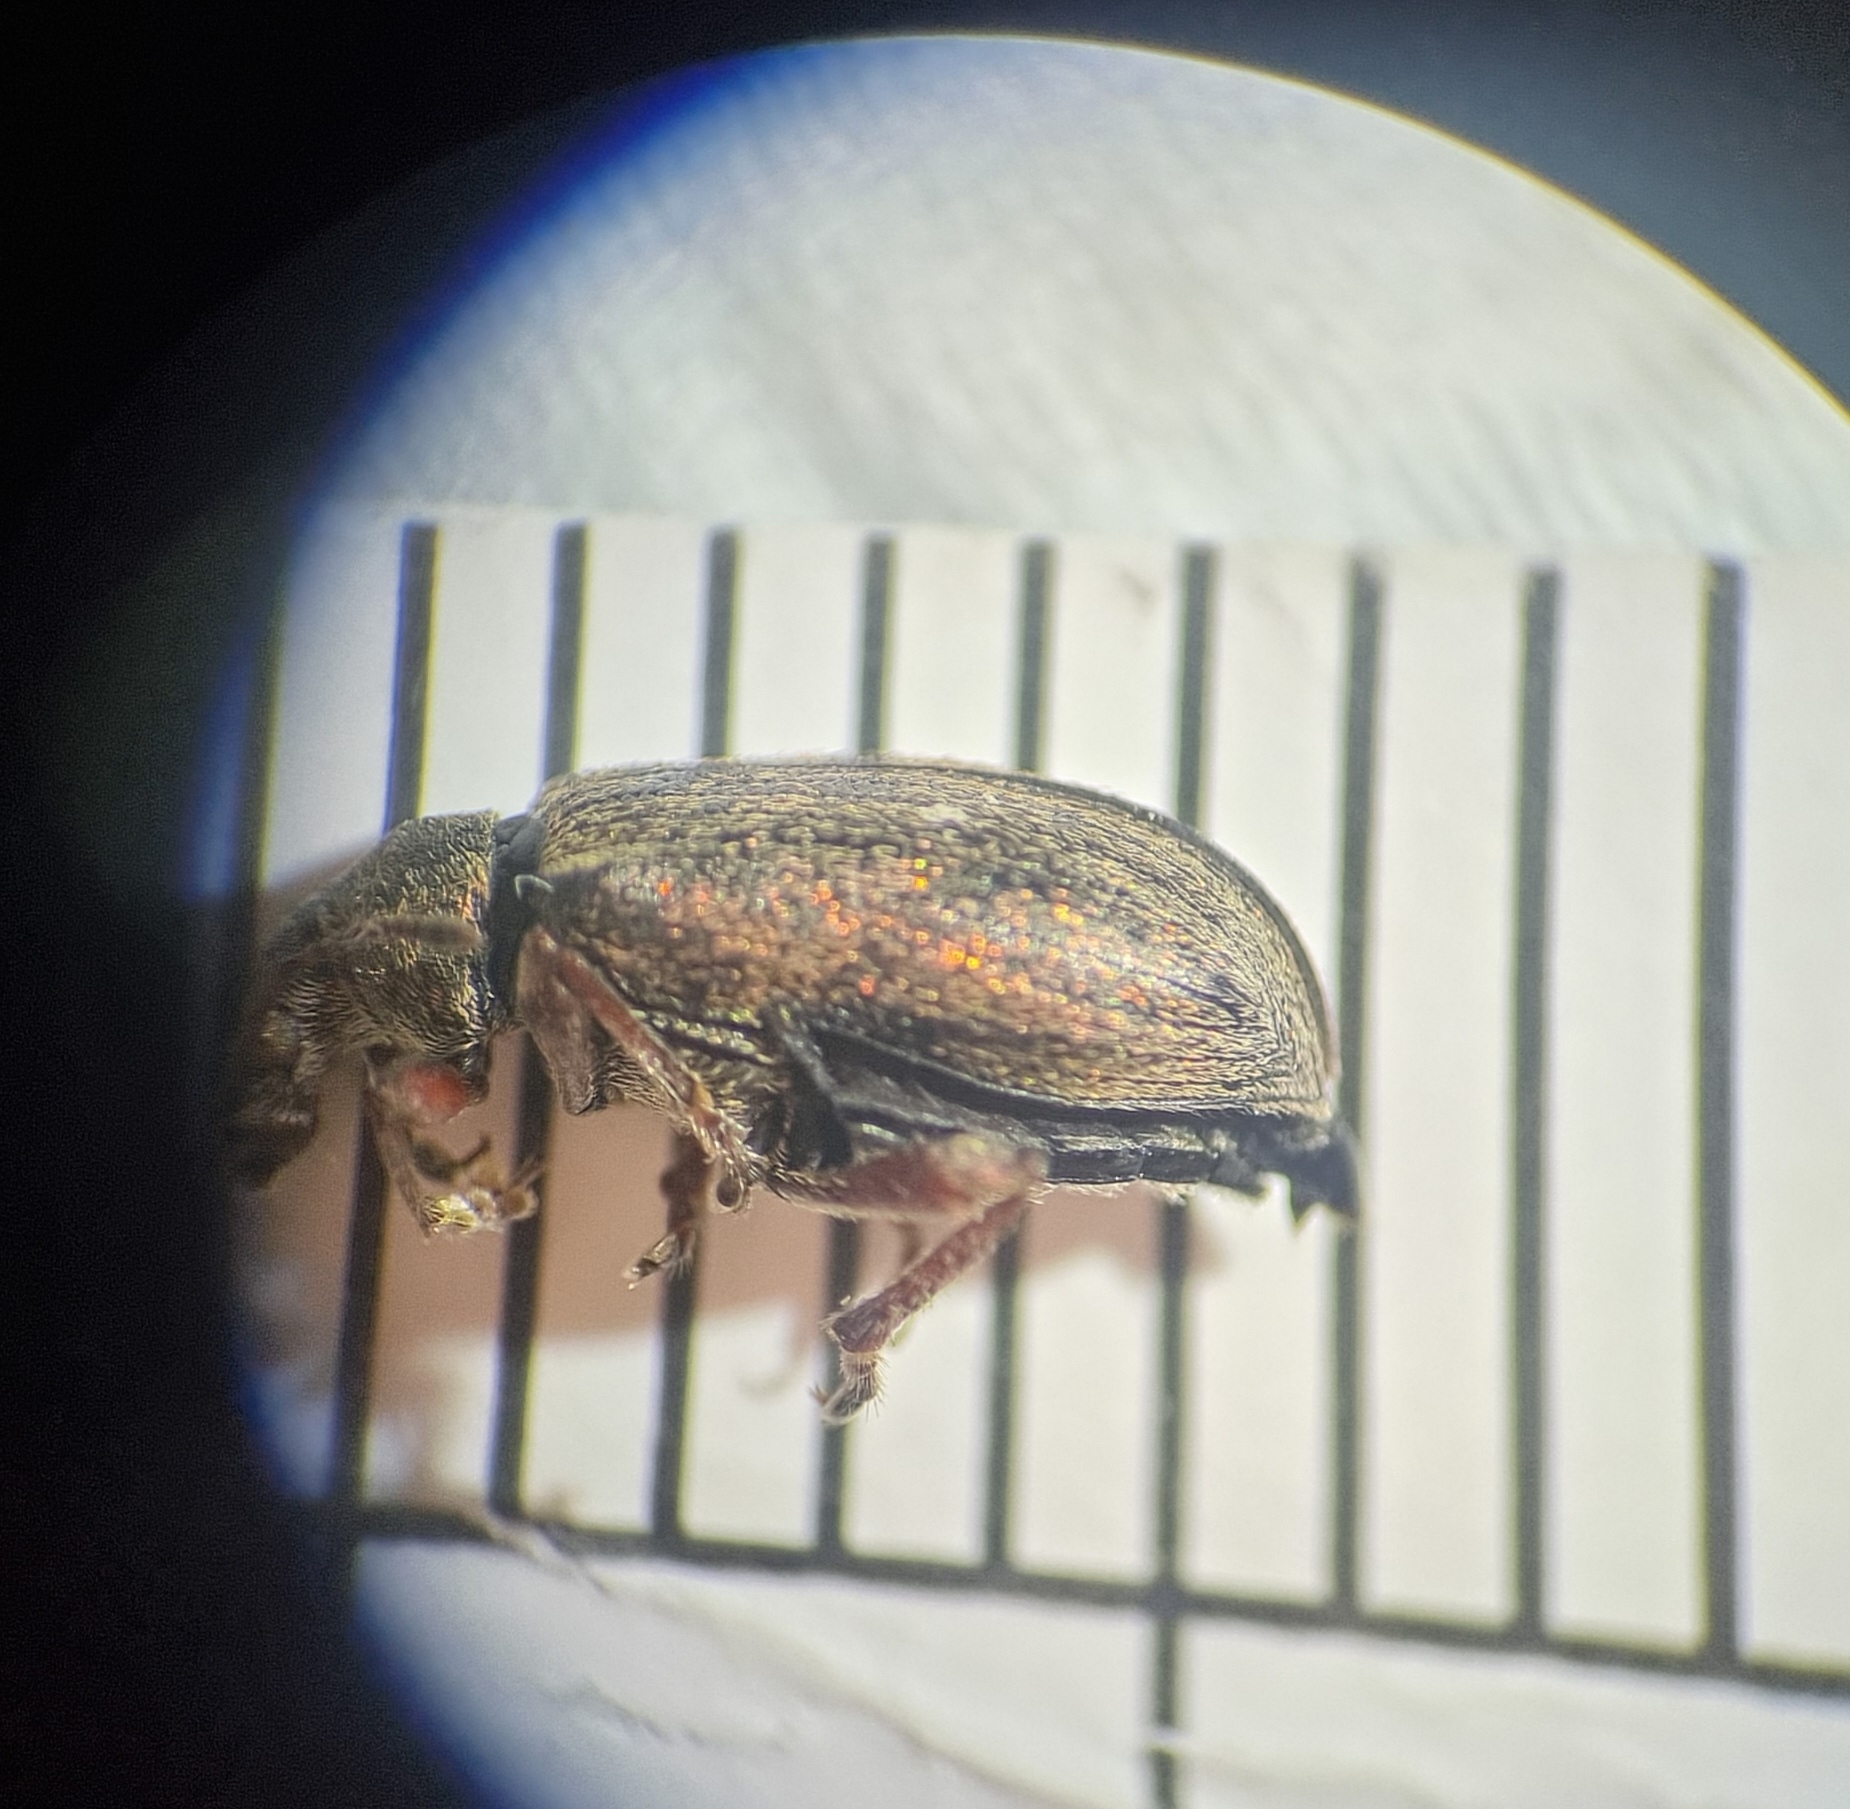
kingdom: Animalia
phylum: Arthropoda
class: Insecta
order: Coleoptera
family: Curculionidae
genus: Phyllobius
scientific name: Phyllobius pyri
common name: Common leaf weevil
